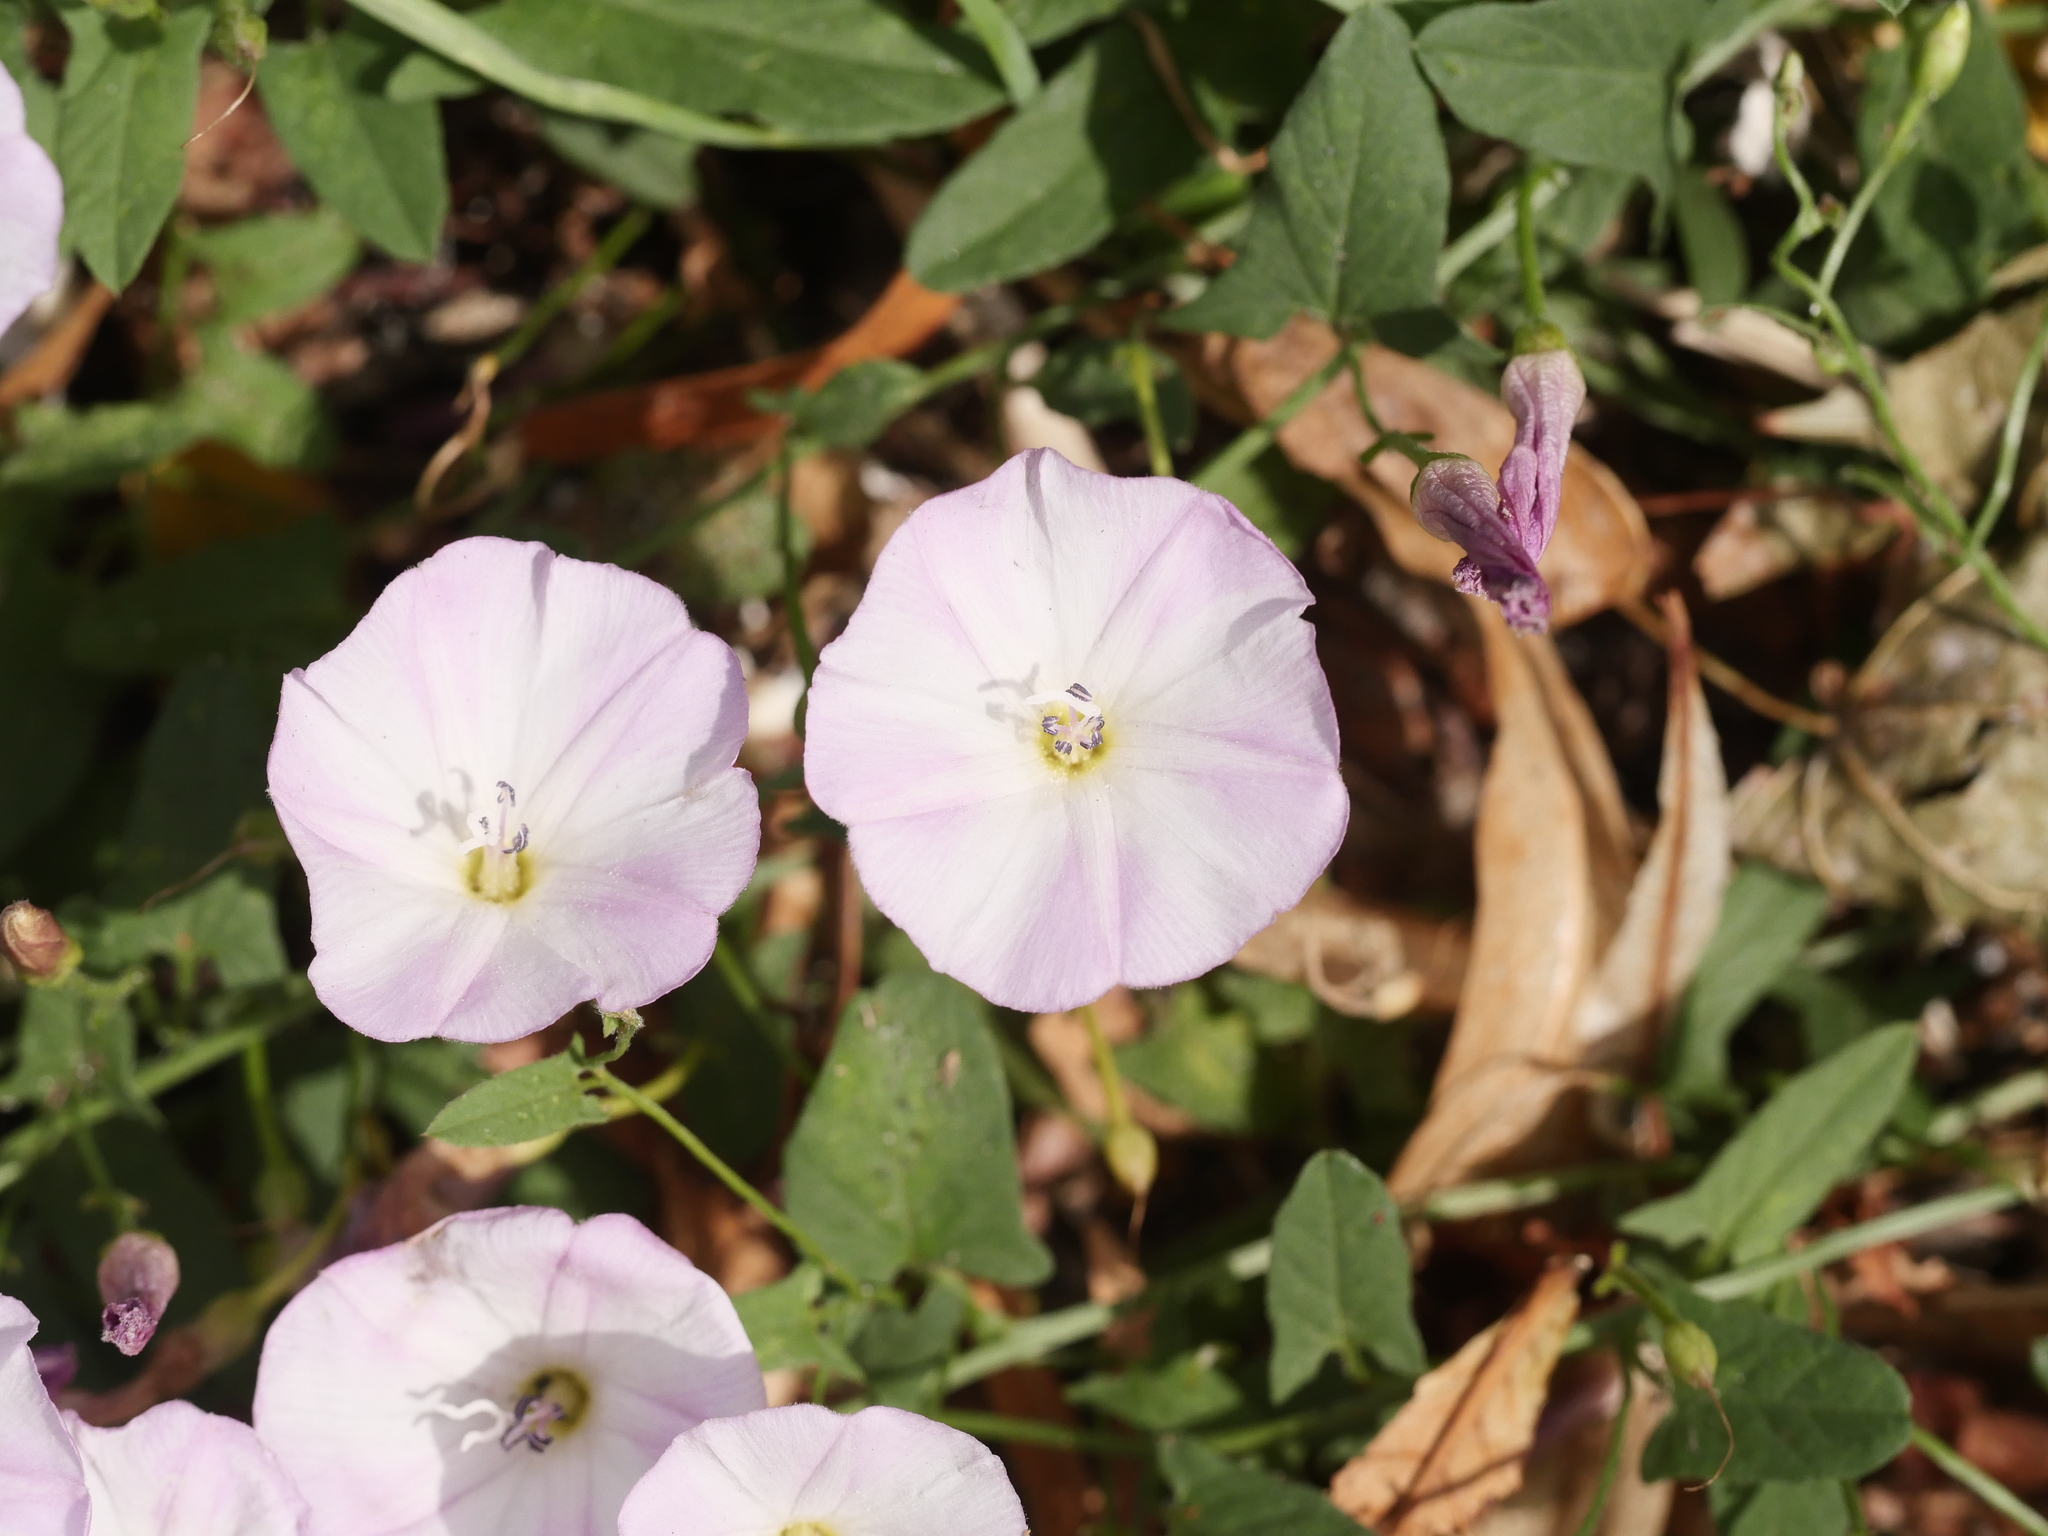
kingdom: Plantae
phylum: Tracheophyta
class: Magnoliopsida
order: Solanales
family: Convolvulaceae
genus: Convolvulus
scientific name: Convolvulus arvensis
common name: Field bindweed
